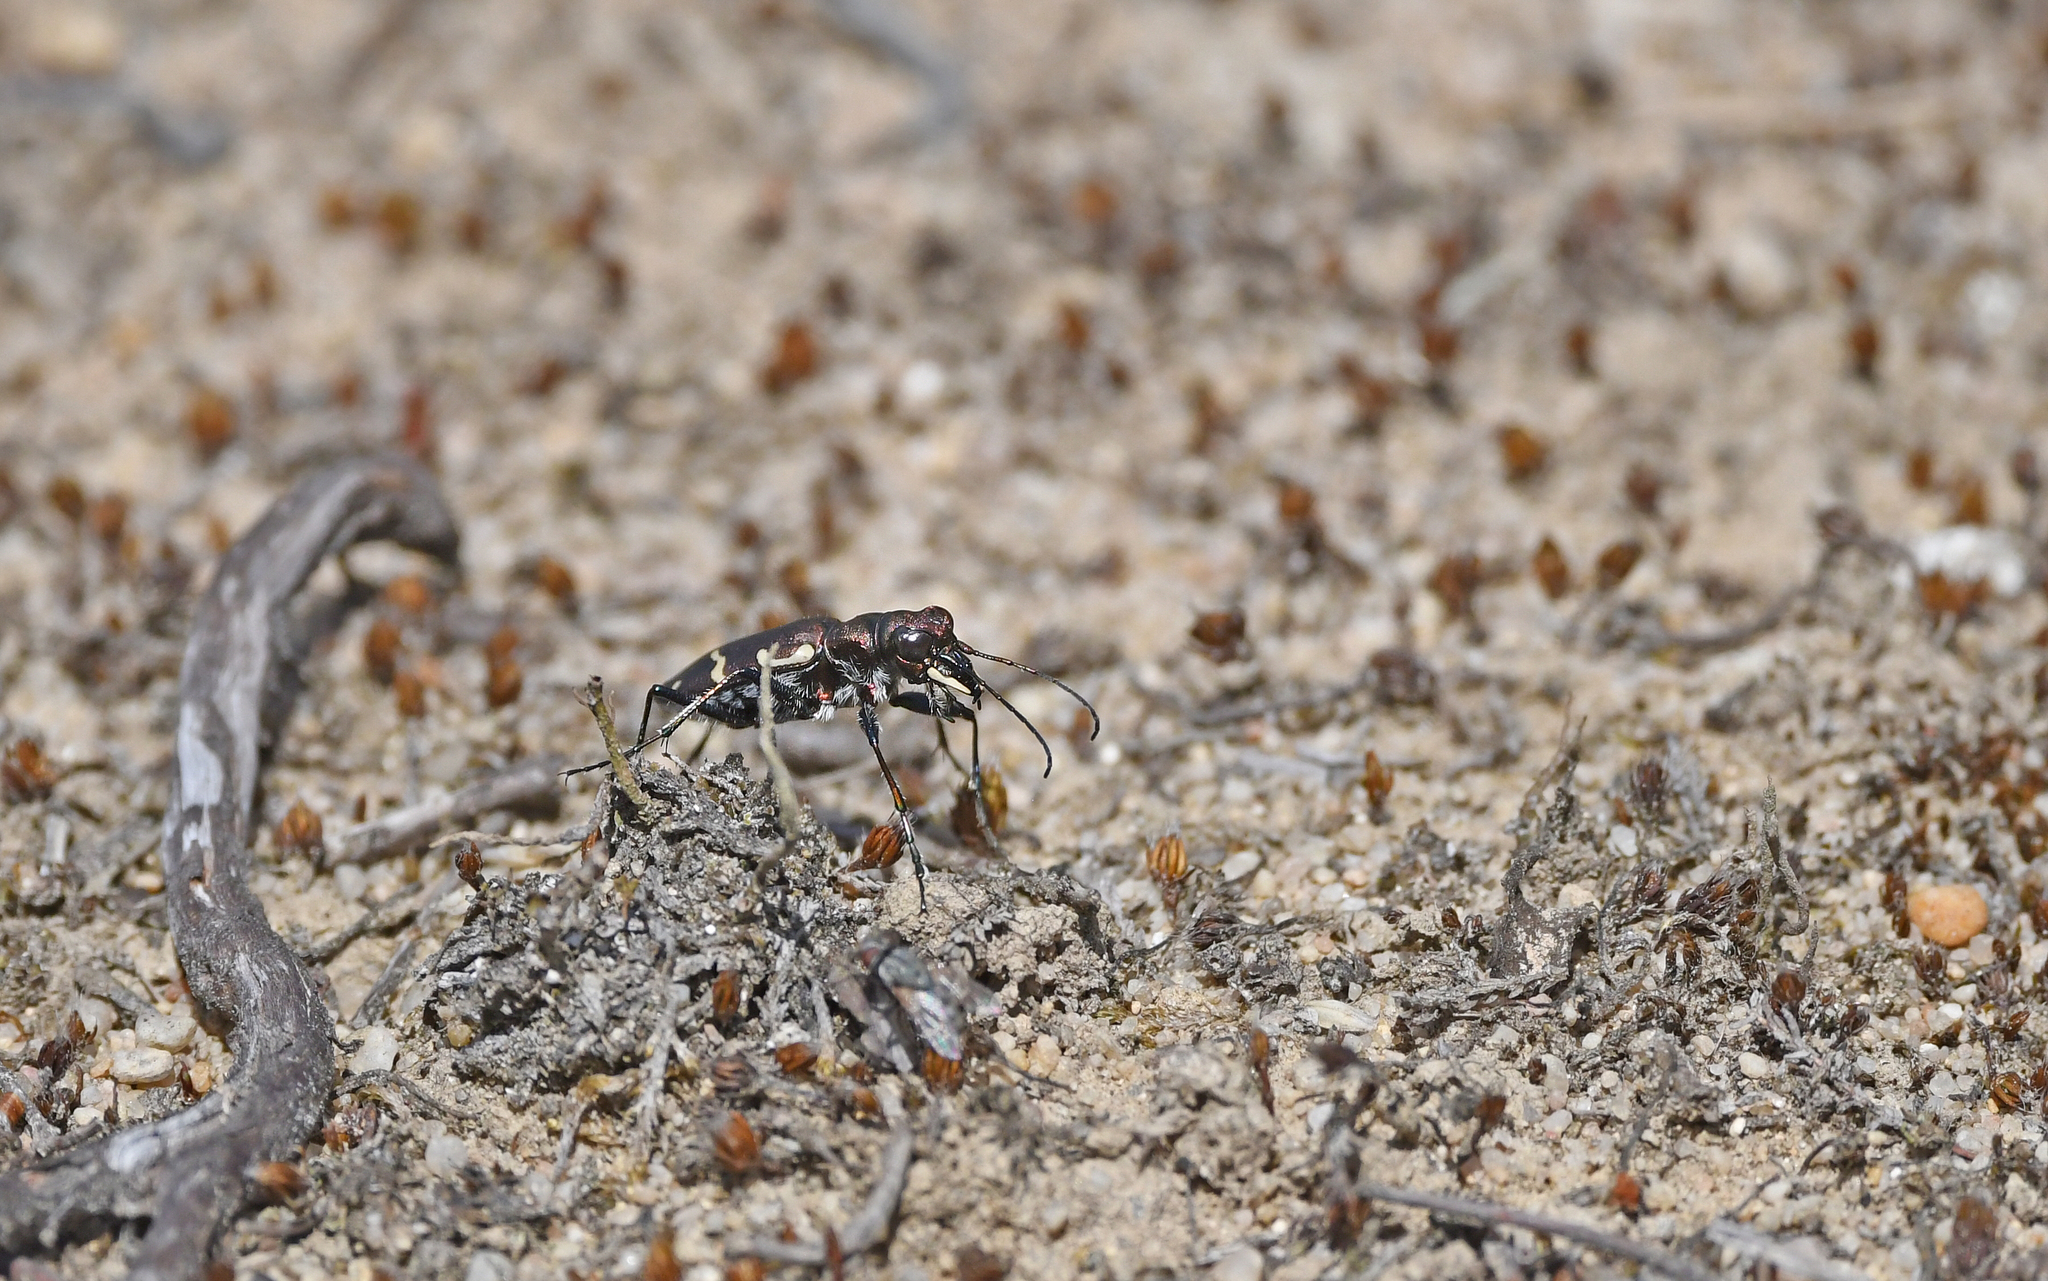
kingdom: Animalia
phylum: Arthropoda
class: Insecta
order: Coleoptera
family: Carabidae
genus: Cicindela
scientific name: Cicindela sylvatica
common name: Heath tiger beetle
